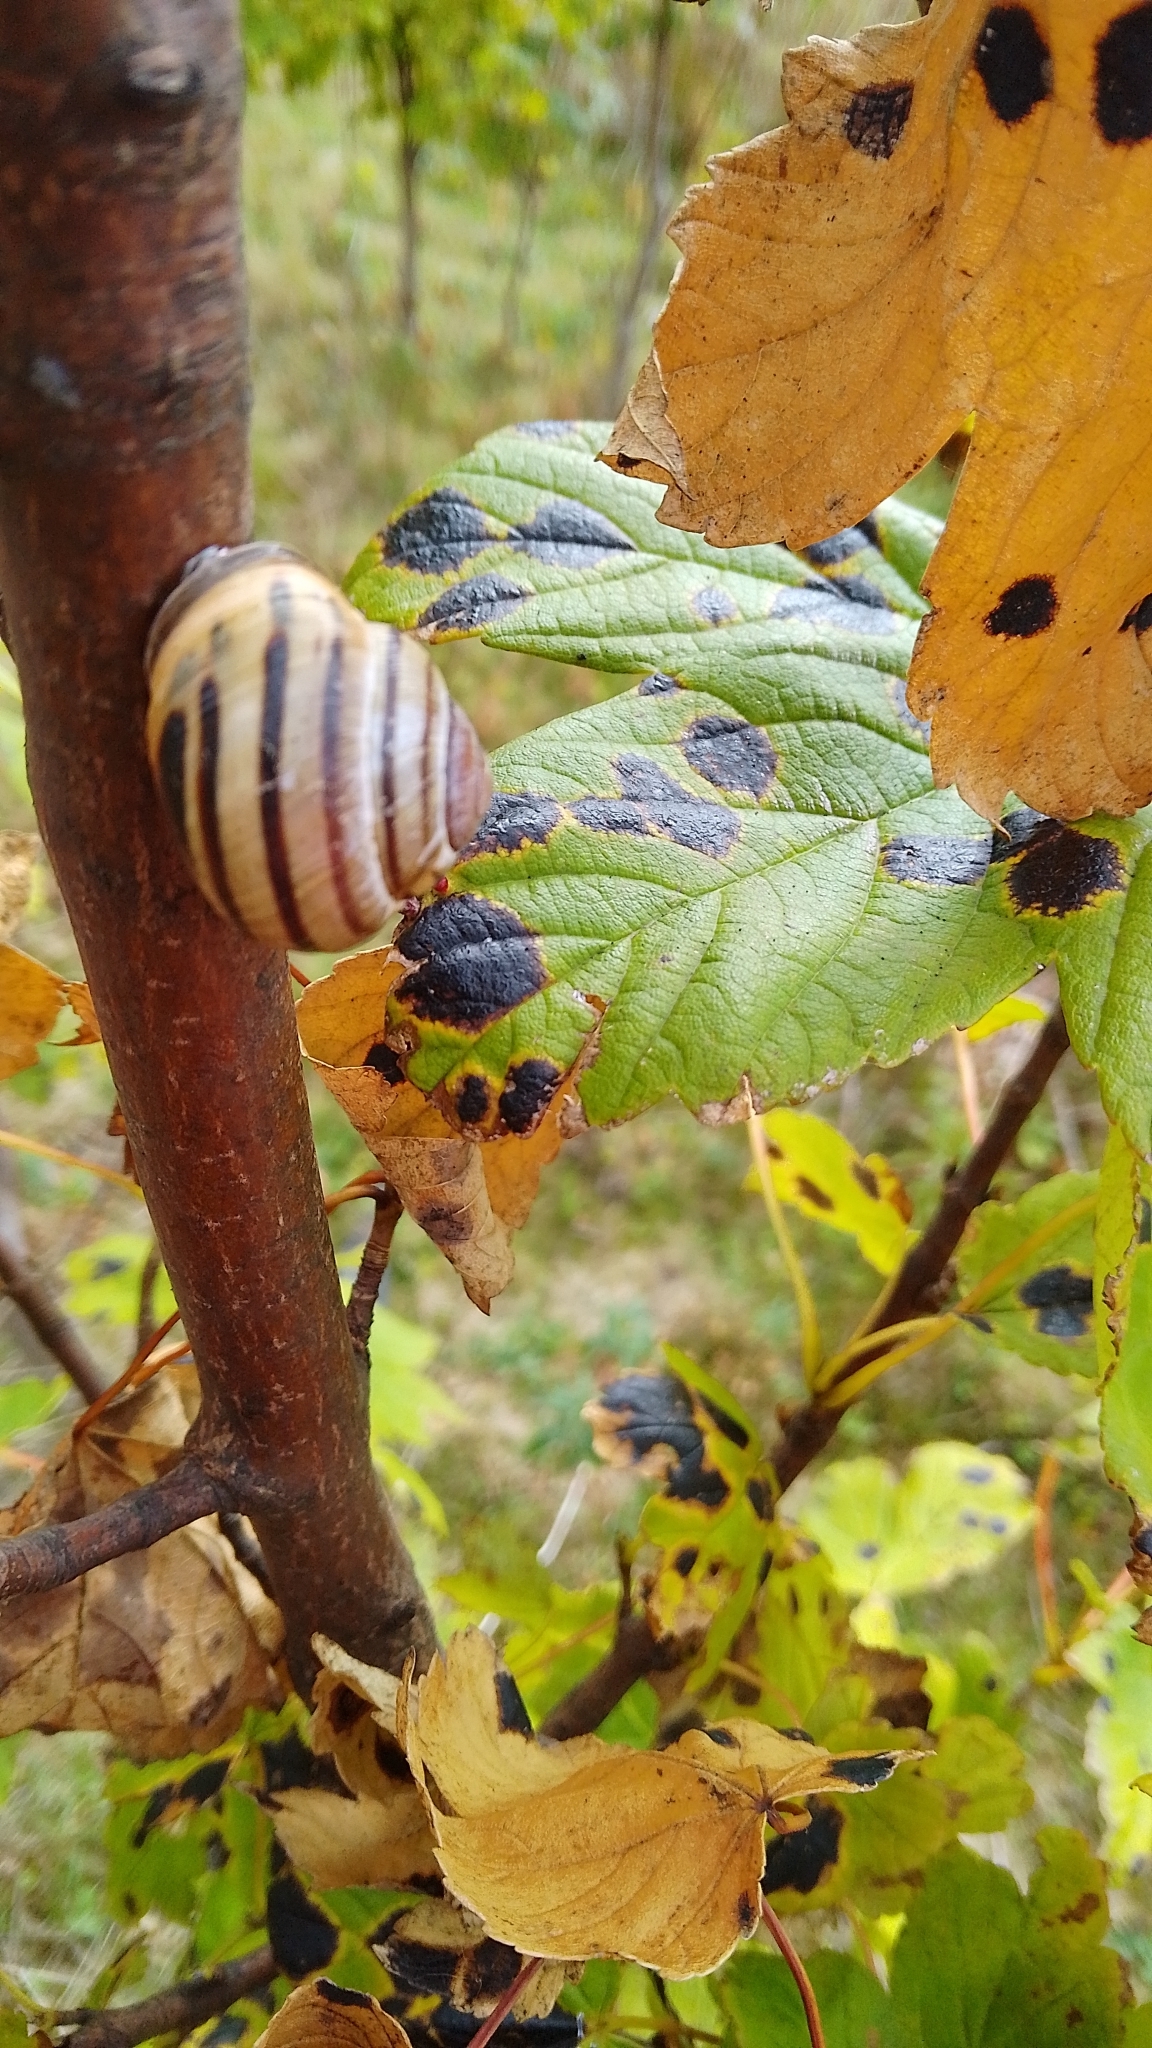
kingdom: Animalia
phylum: Mollusca
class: Gastropoda
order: Stylommatophora
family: Helicidae
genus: Cepaea
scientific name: Cepaea nemoralis
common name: Grovesnail
